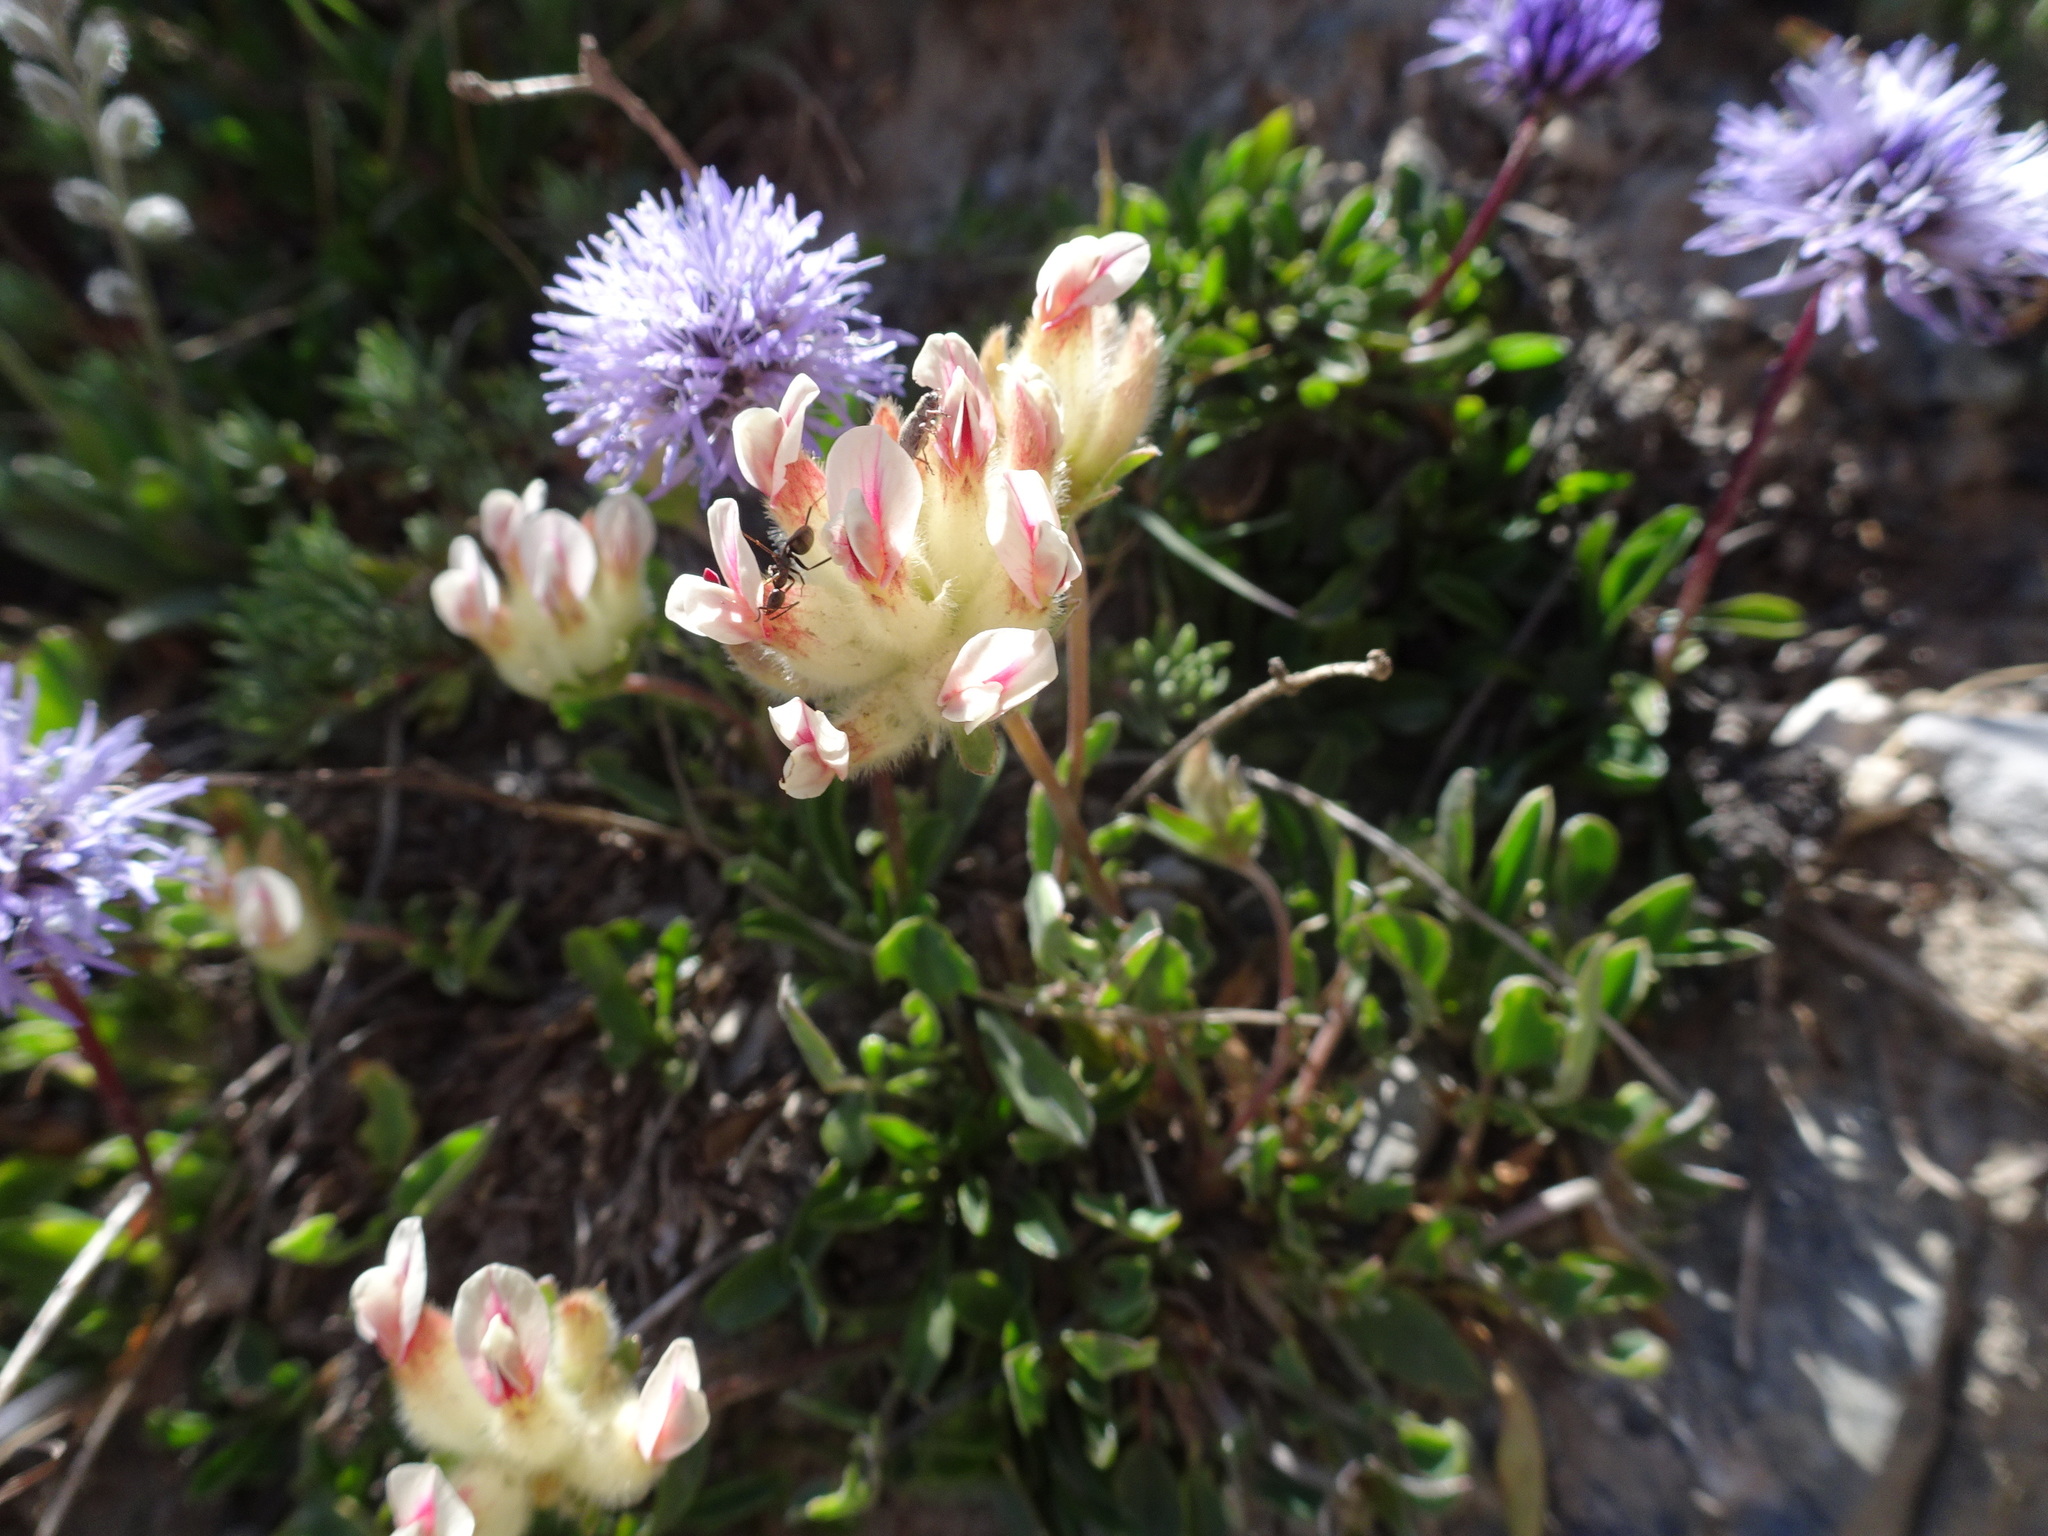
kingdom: Plantae
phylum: Tracheophyta
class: Magnoliopsida
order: Fabales
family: Fabaceae
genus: Anthyllis
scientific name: Anthyllis vulneraria
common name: Kidney vetch
